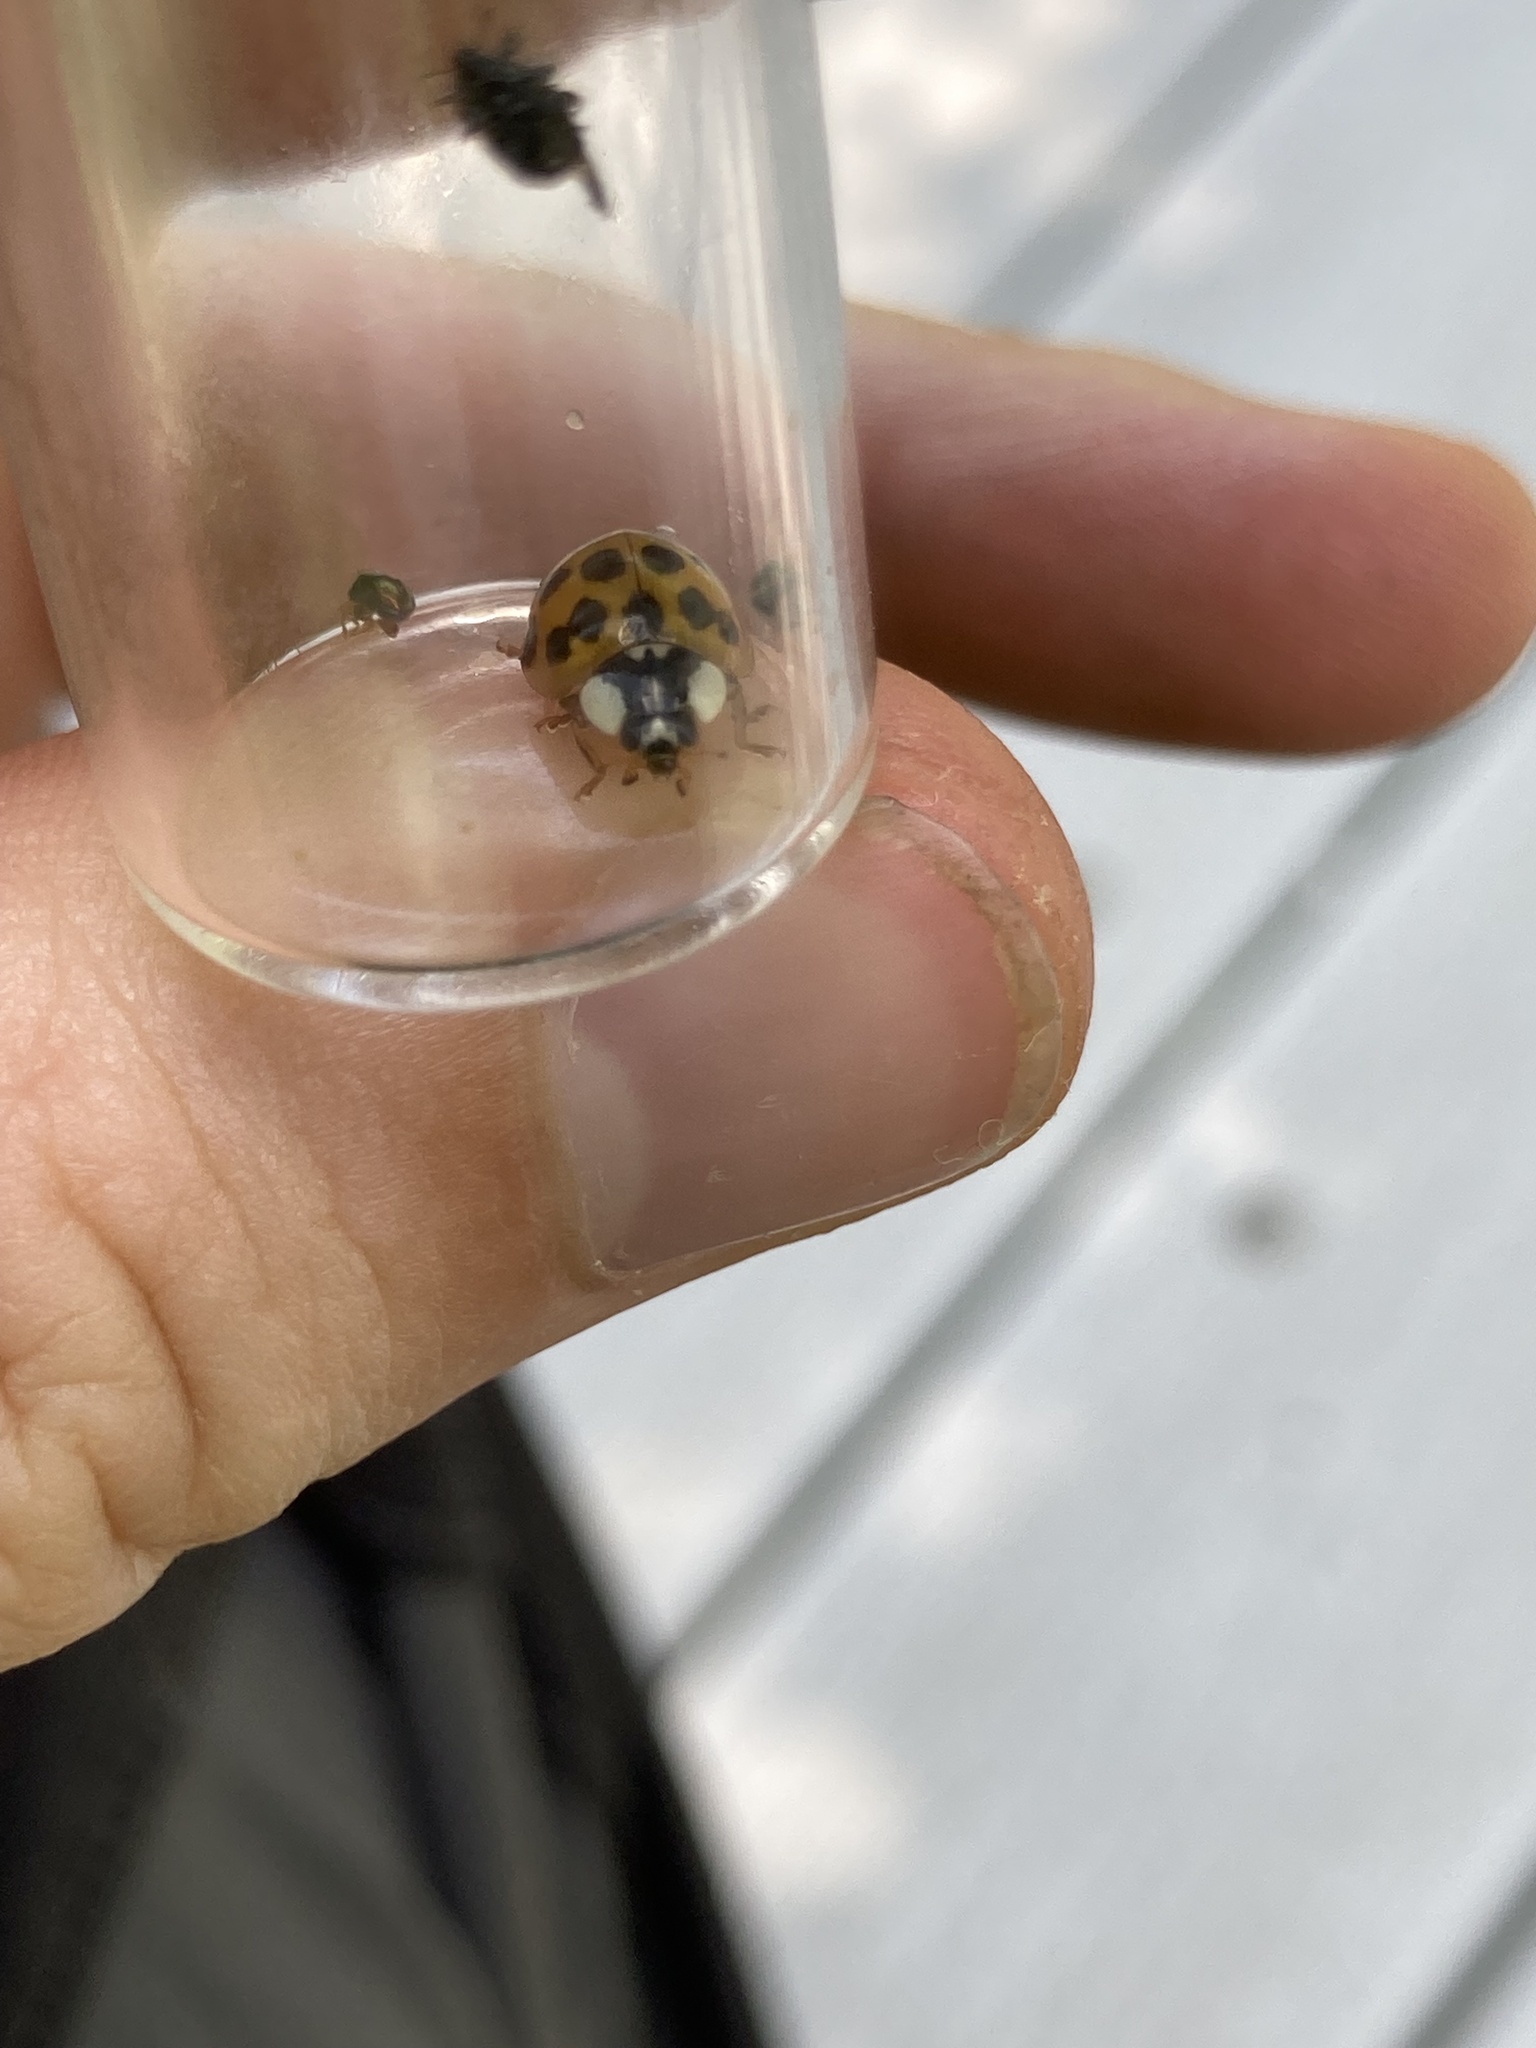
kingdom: Animalia
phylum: Arthropoda
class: Insecta
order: Coleoptera
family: Coccinellidae
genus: Harmonia
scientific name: Harmonia axyridis
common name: Harlequin ladybird
